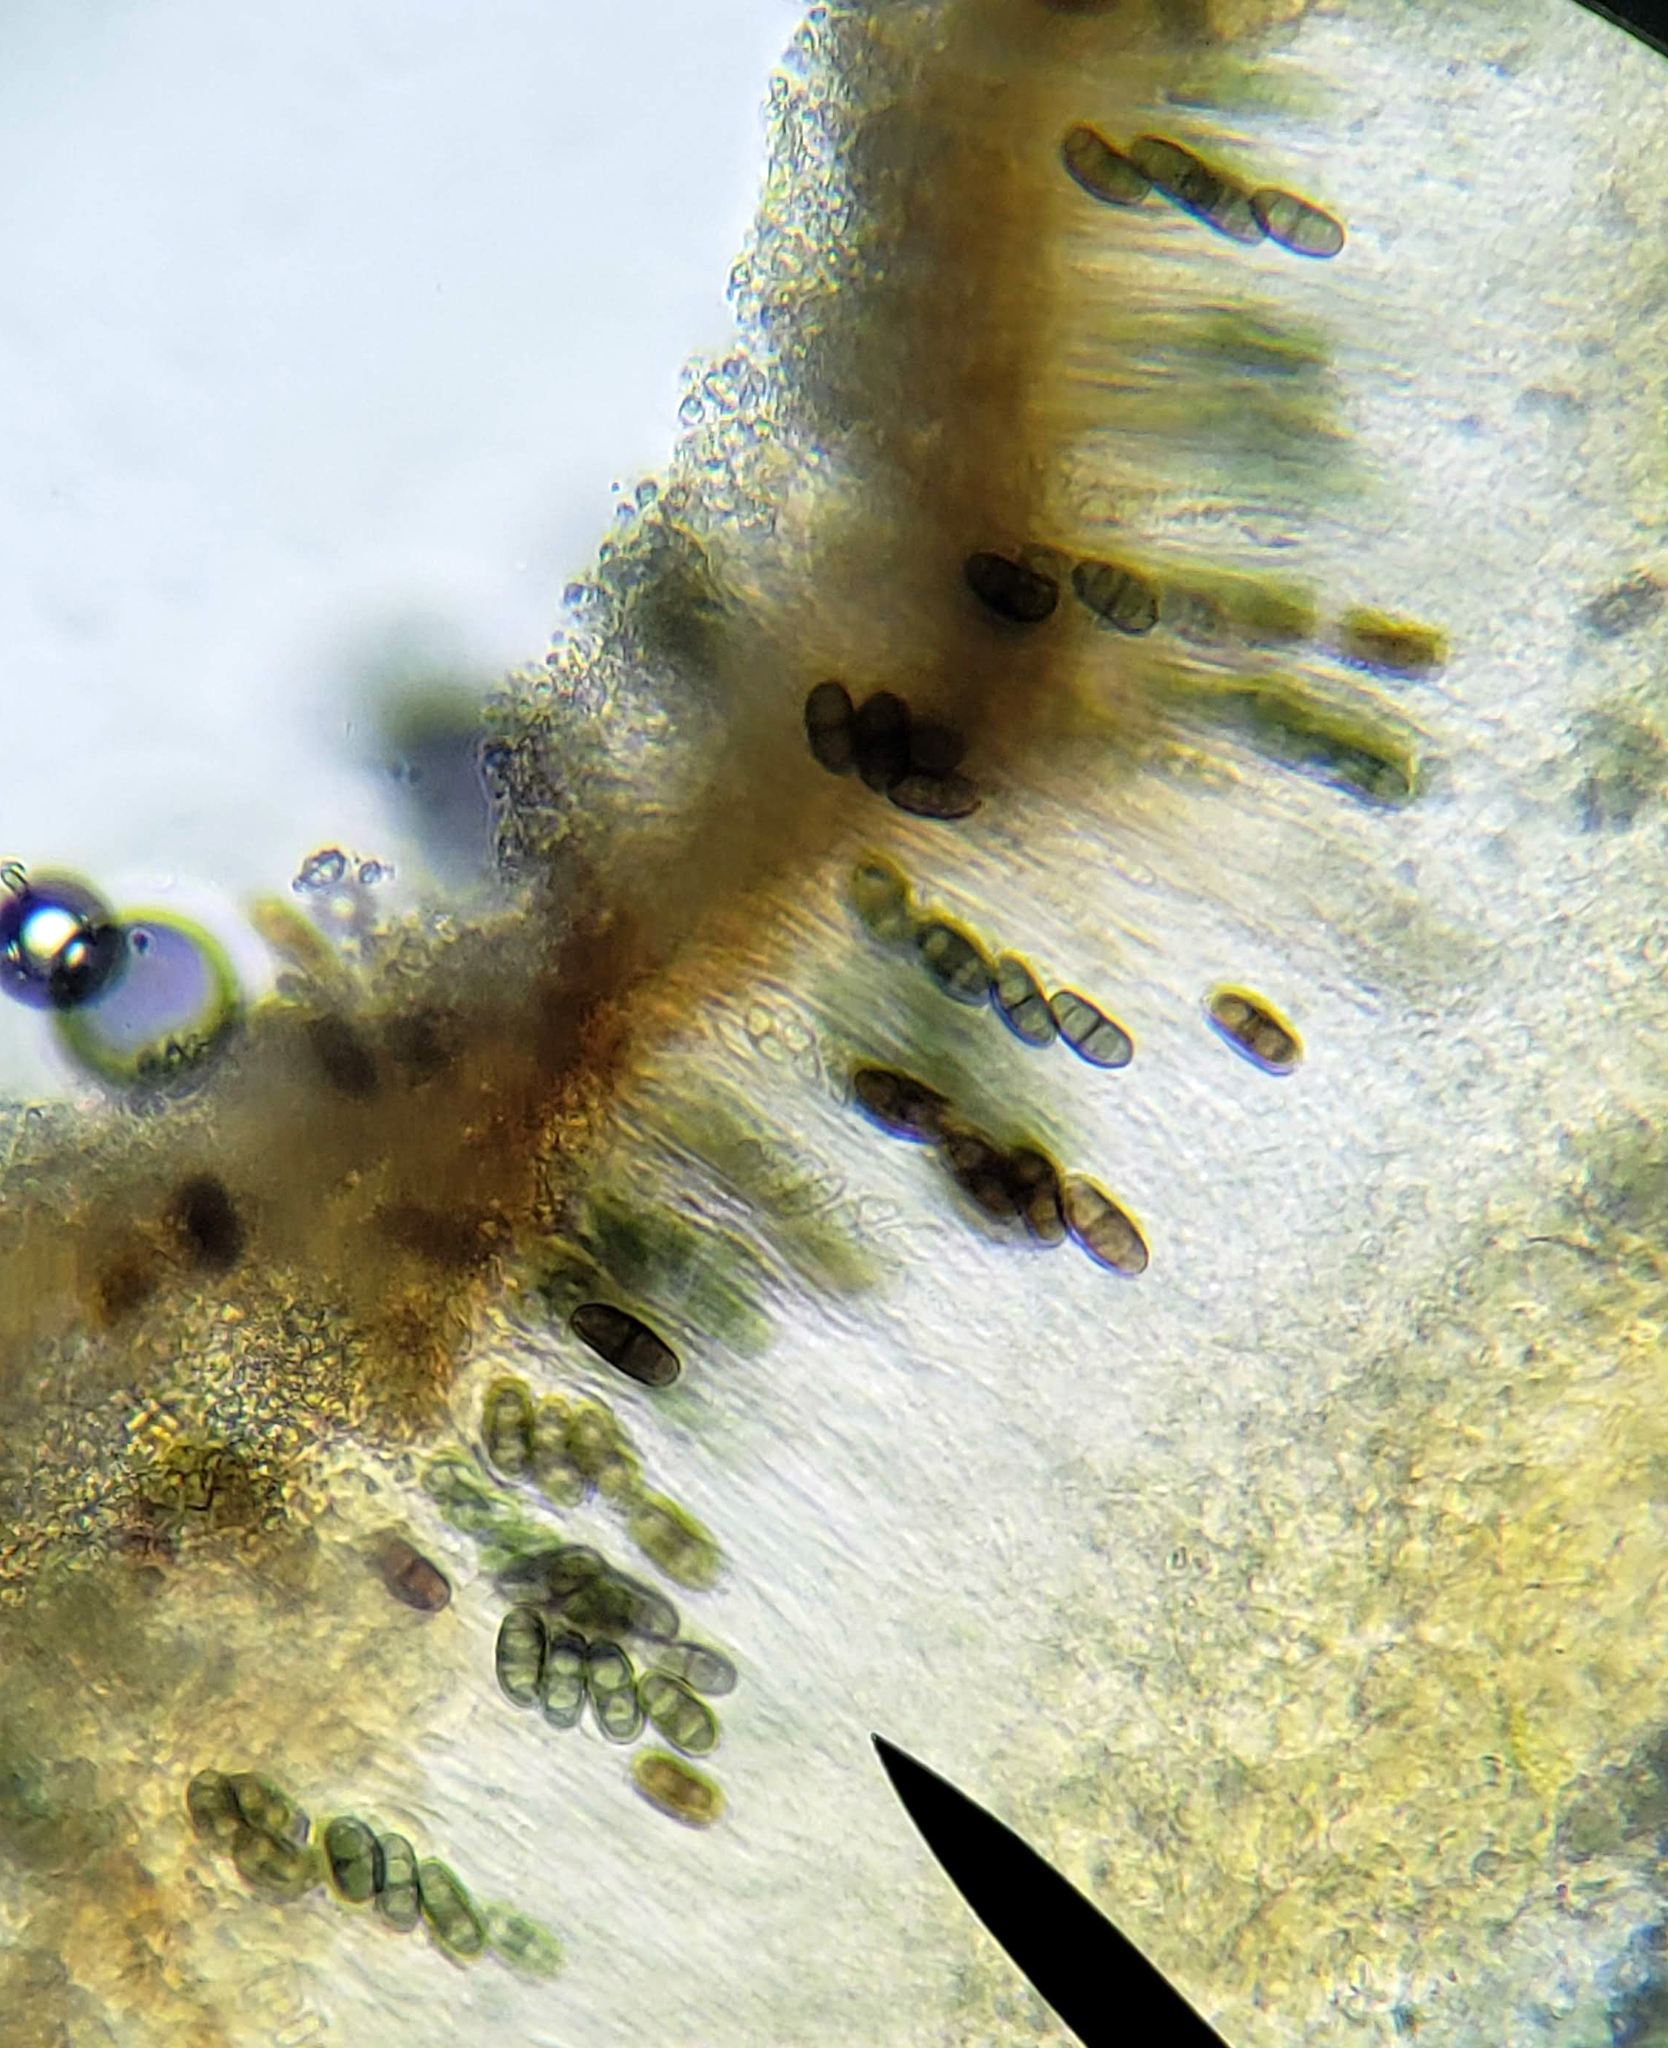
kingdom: Fungi
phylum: Ascomycota
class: Lecanoromycetes
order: Caliciales
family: Physciaceae
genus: Physcia
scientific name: Physcia stellaris
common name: Star rosette lichen
